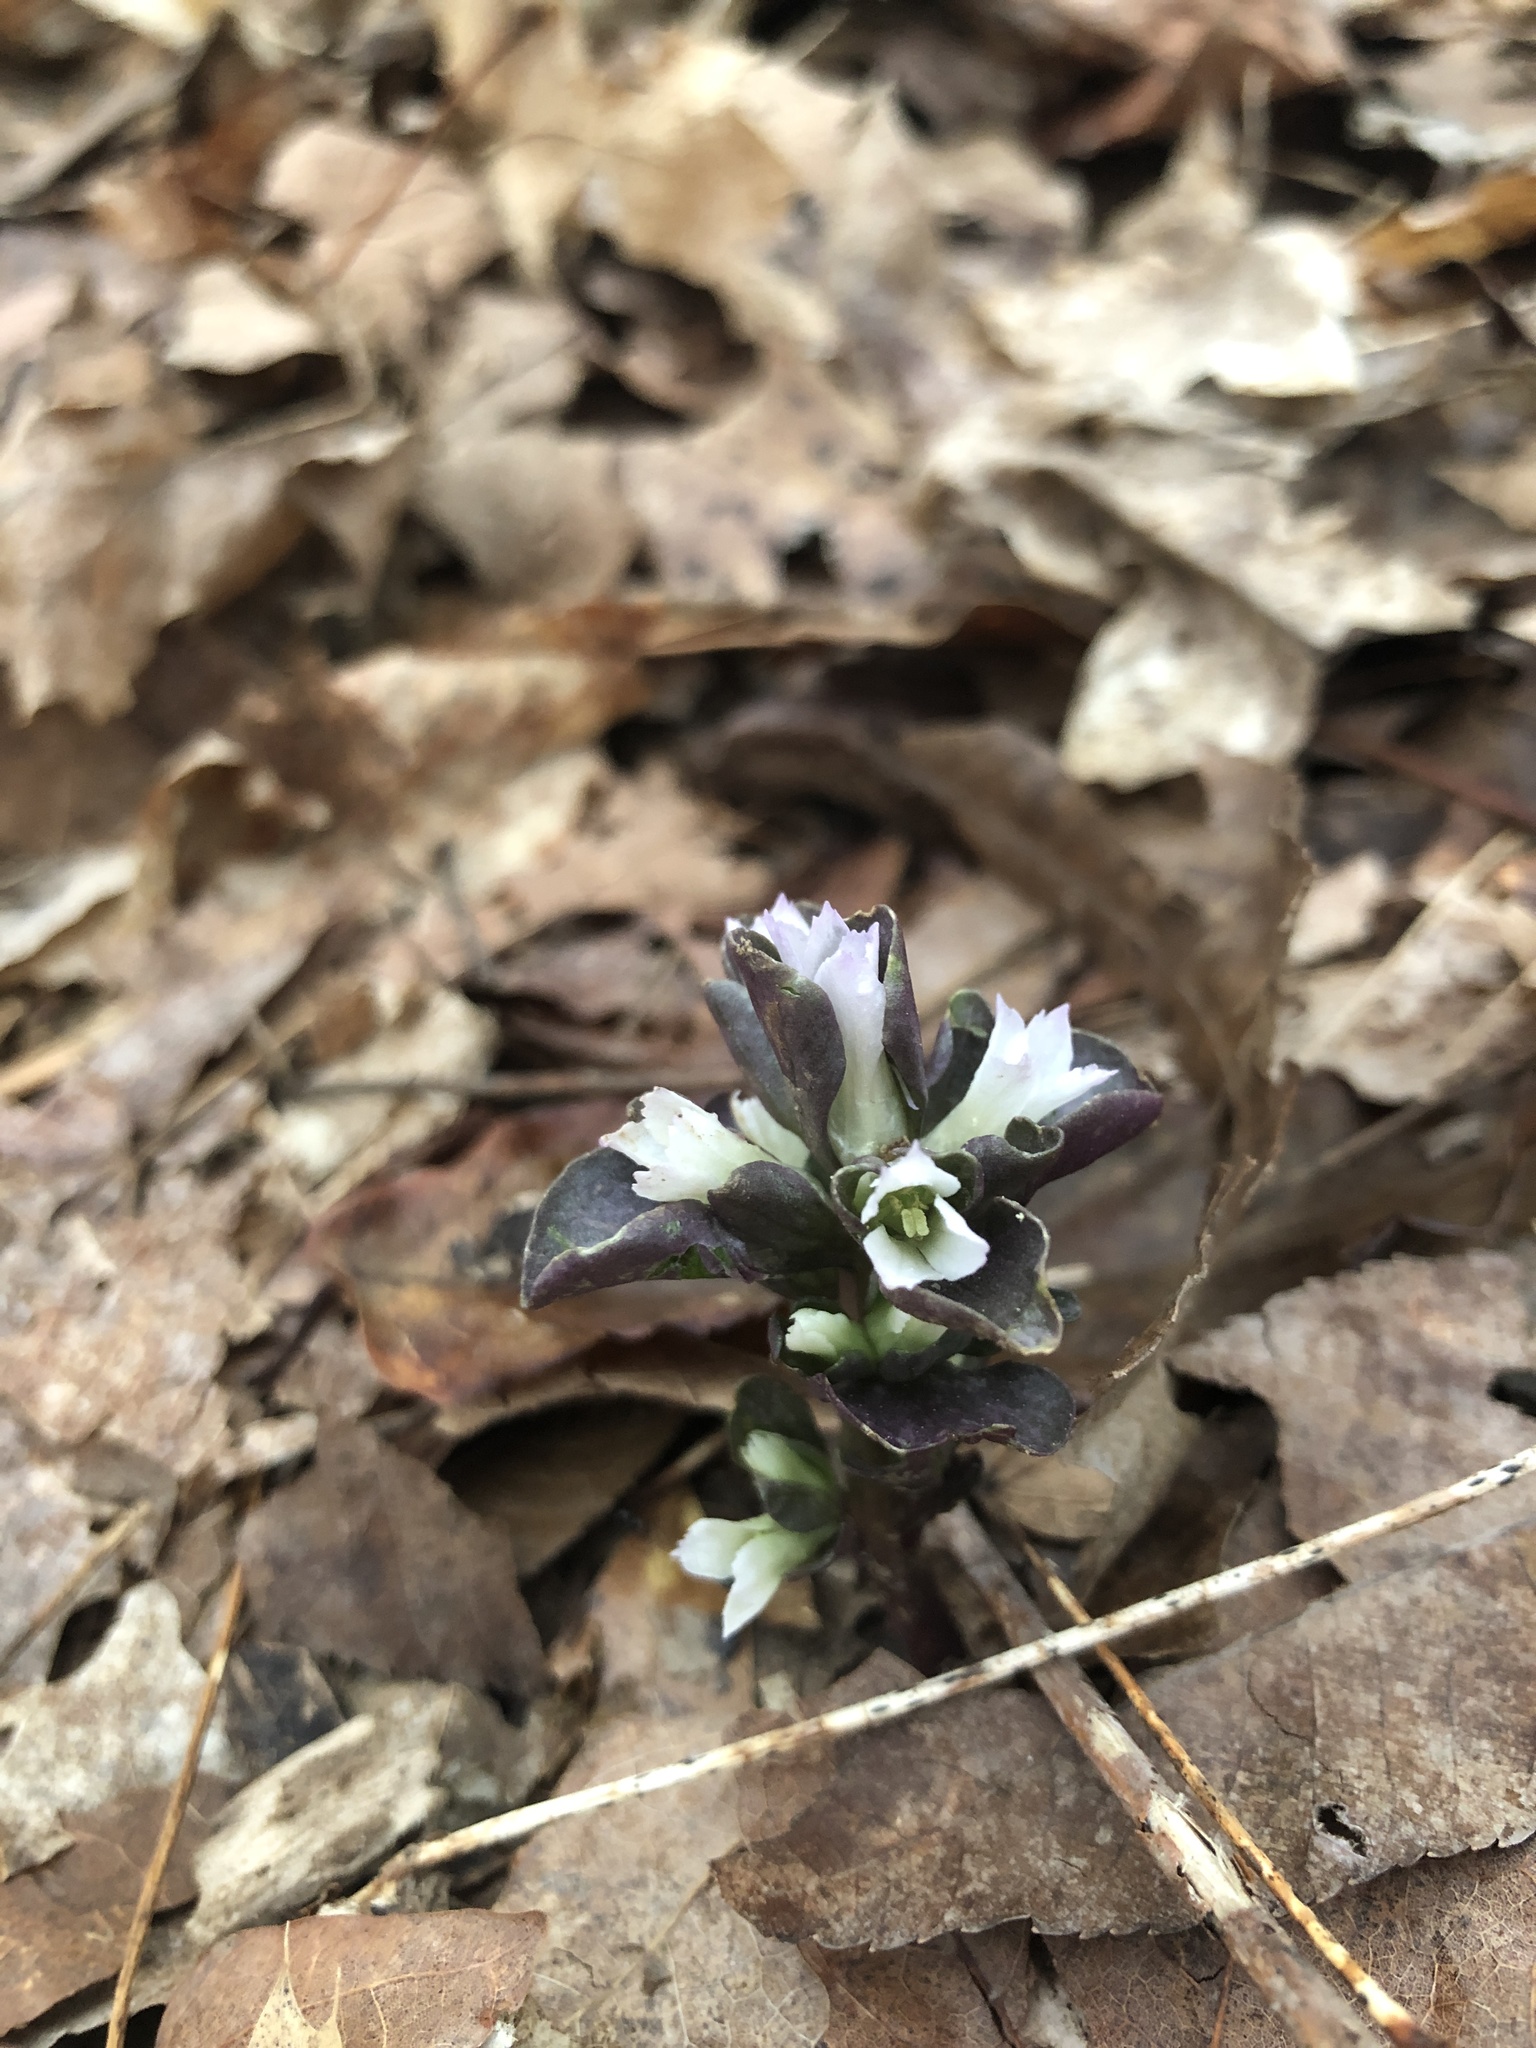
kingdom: Plantae
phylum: Tracheophyta
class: Magnoliopsida
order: Gentianales
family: Gentianaceae
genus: Obolaria
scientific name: Obolaria virginica
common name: Pennywort
